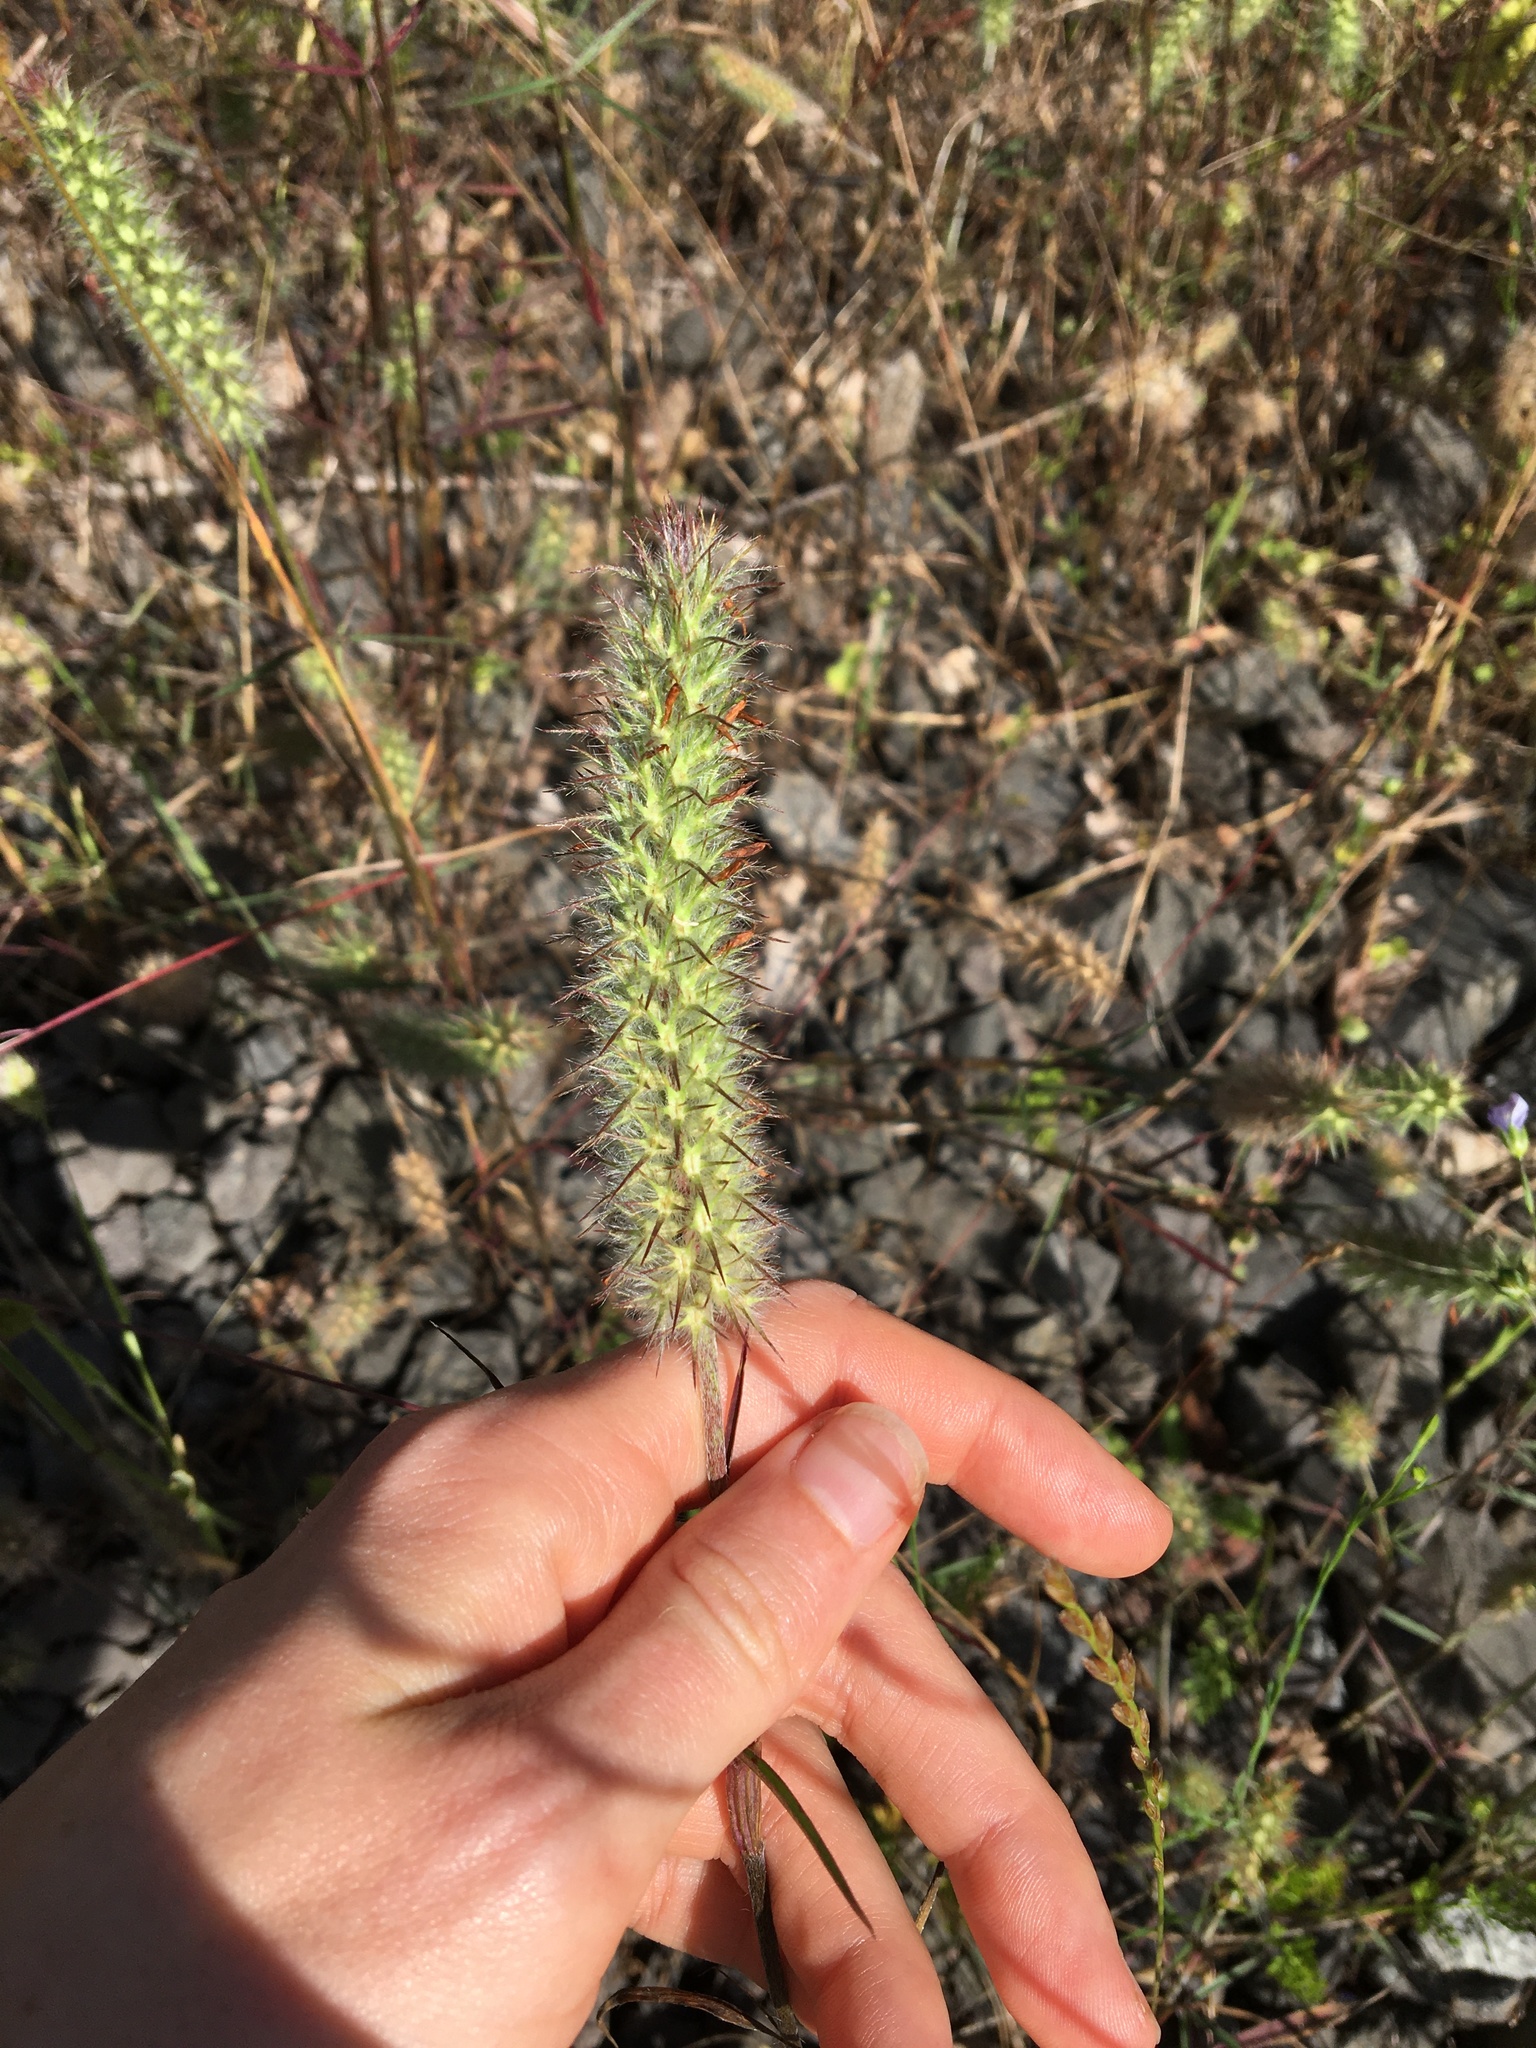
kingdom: Plantae
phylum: Tracheophyta
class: Magnoliopsida
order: Fabales
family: Fabaceae
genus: Trifolium
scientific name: Trifolium angustifolium
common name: Narrow clover
